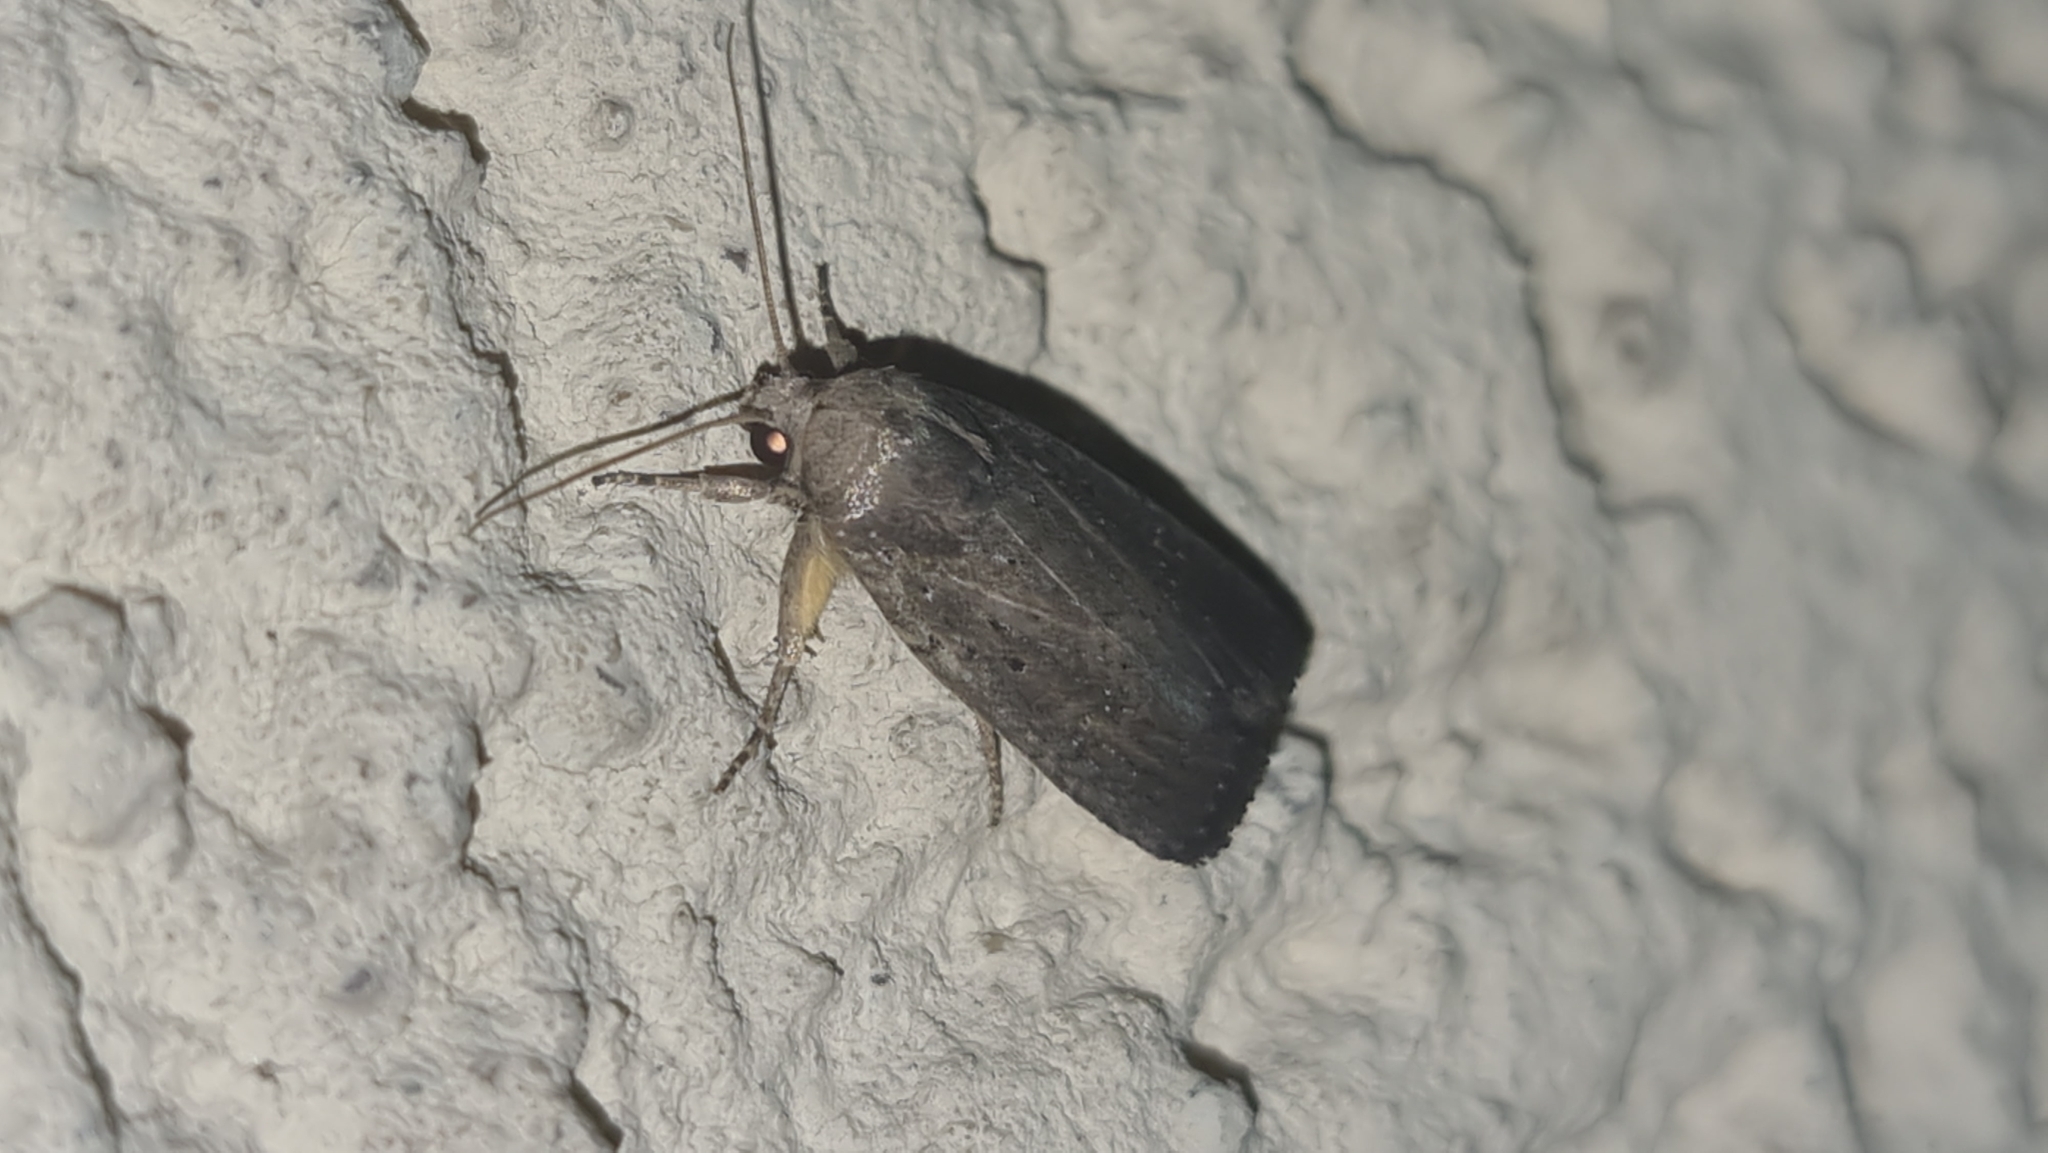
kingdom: Animalia
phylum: Arthropoda
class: Insecta
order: Lepidoptera
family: Noctuidae
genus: Athetis
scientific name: Athetis hospes
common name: Porter's rustic
